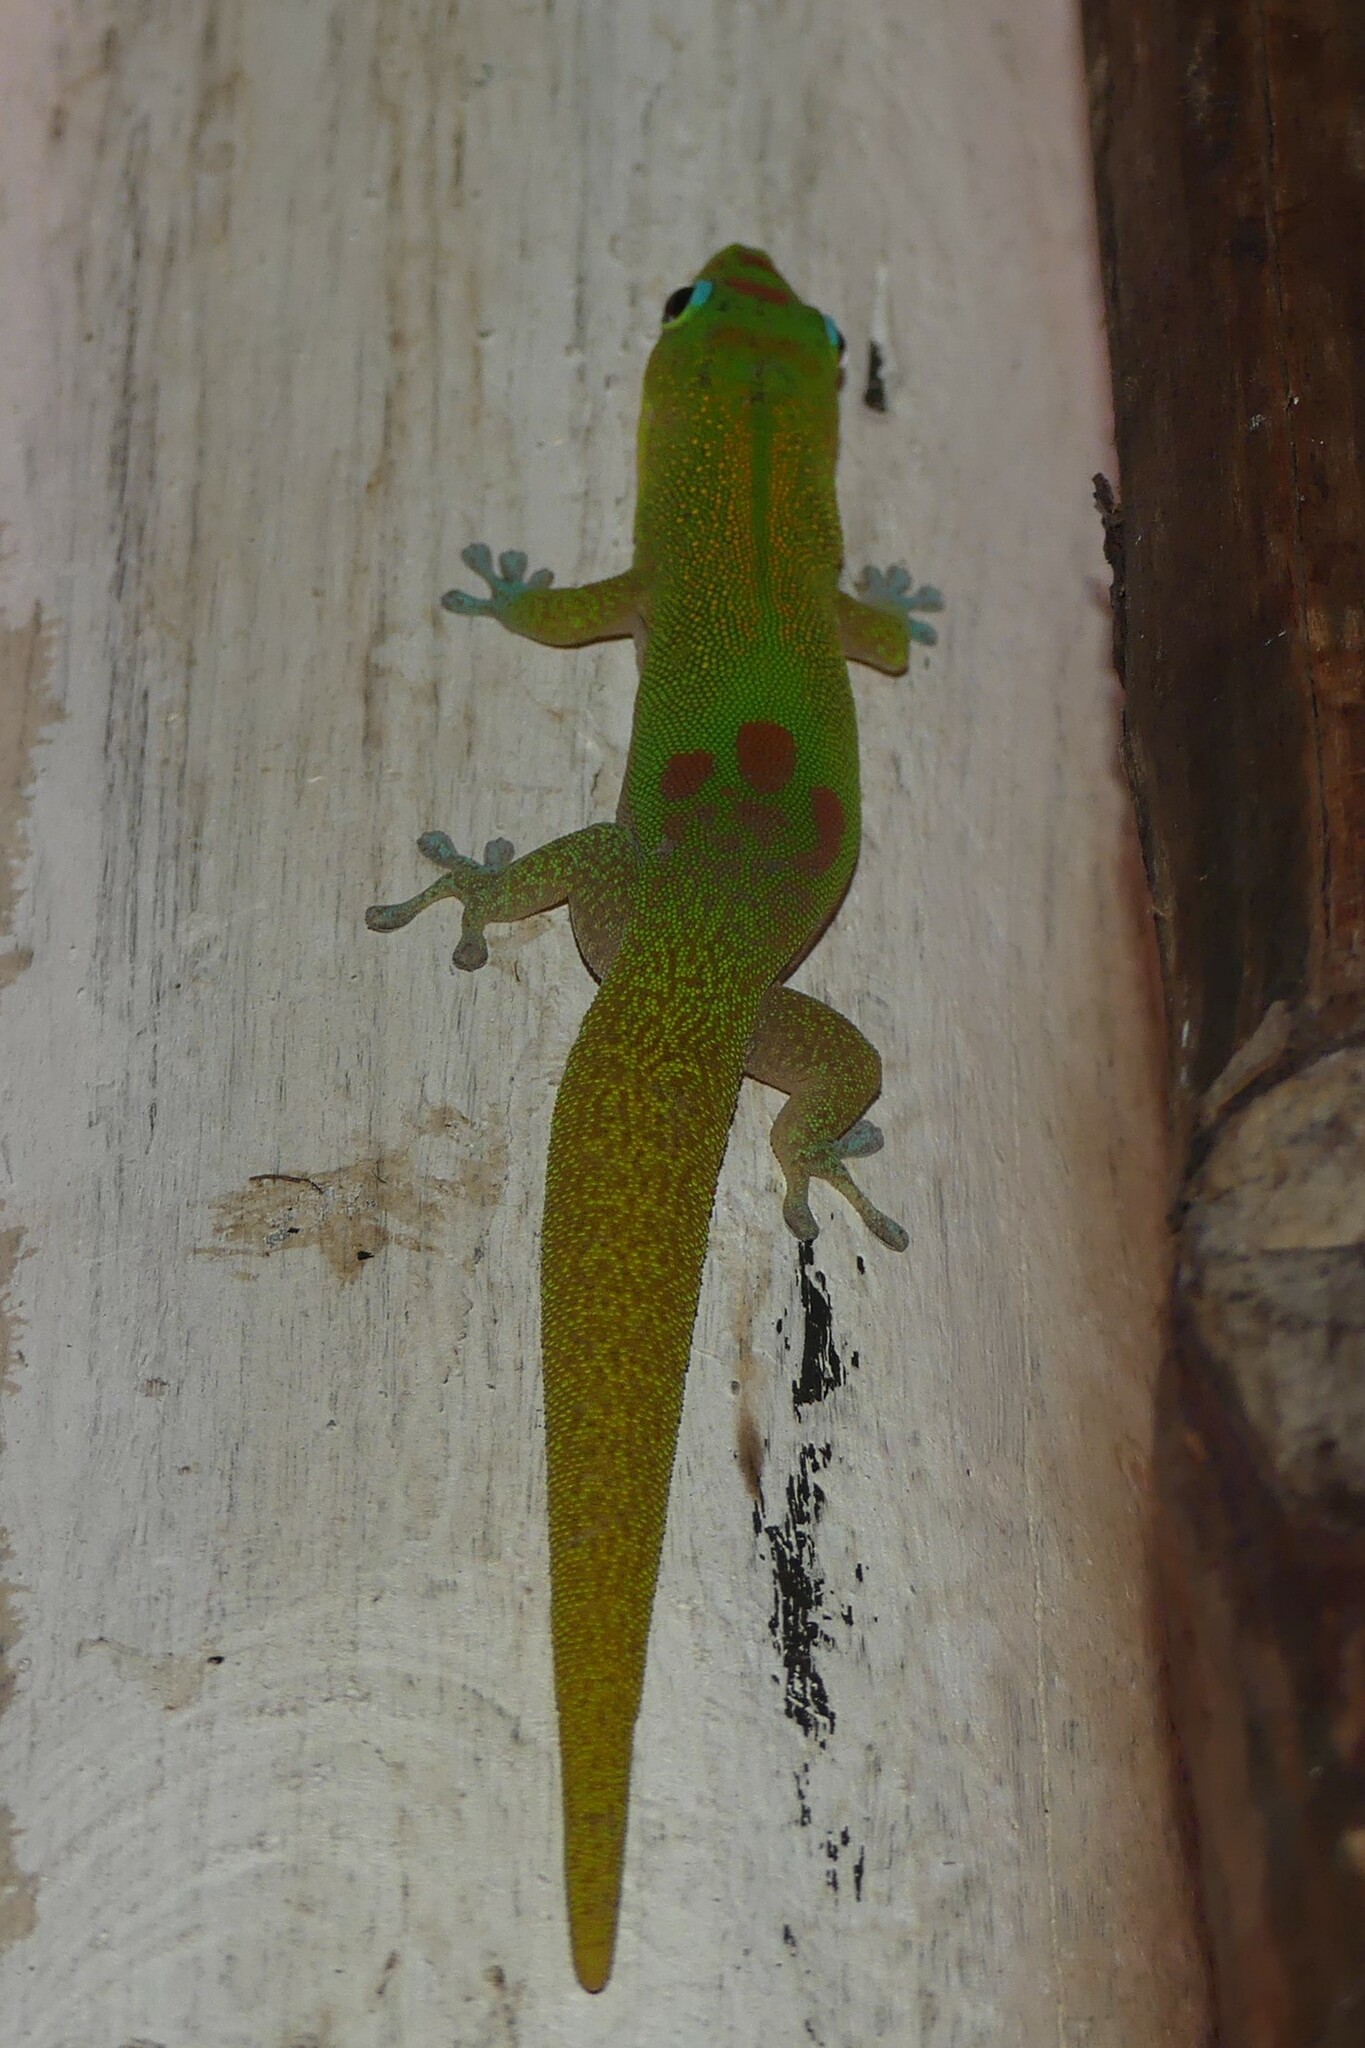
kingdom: Animalia
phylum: Chordata
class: Squamata
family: Gekkonidae
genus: Phelsuma
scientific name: Phelsuma laticauda
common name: Gold dust day gecko
